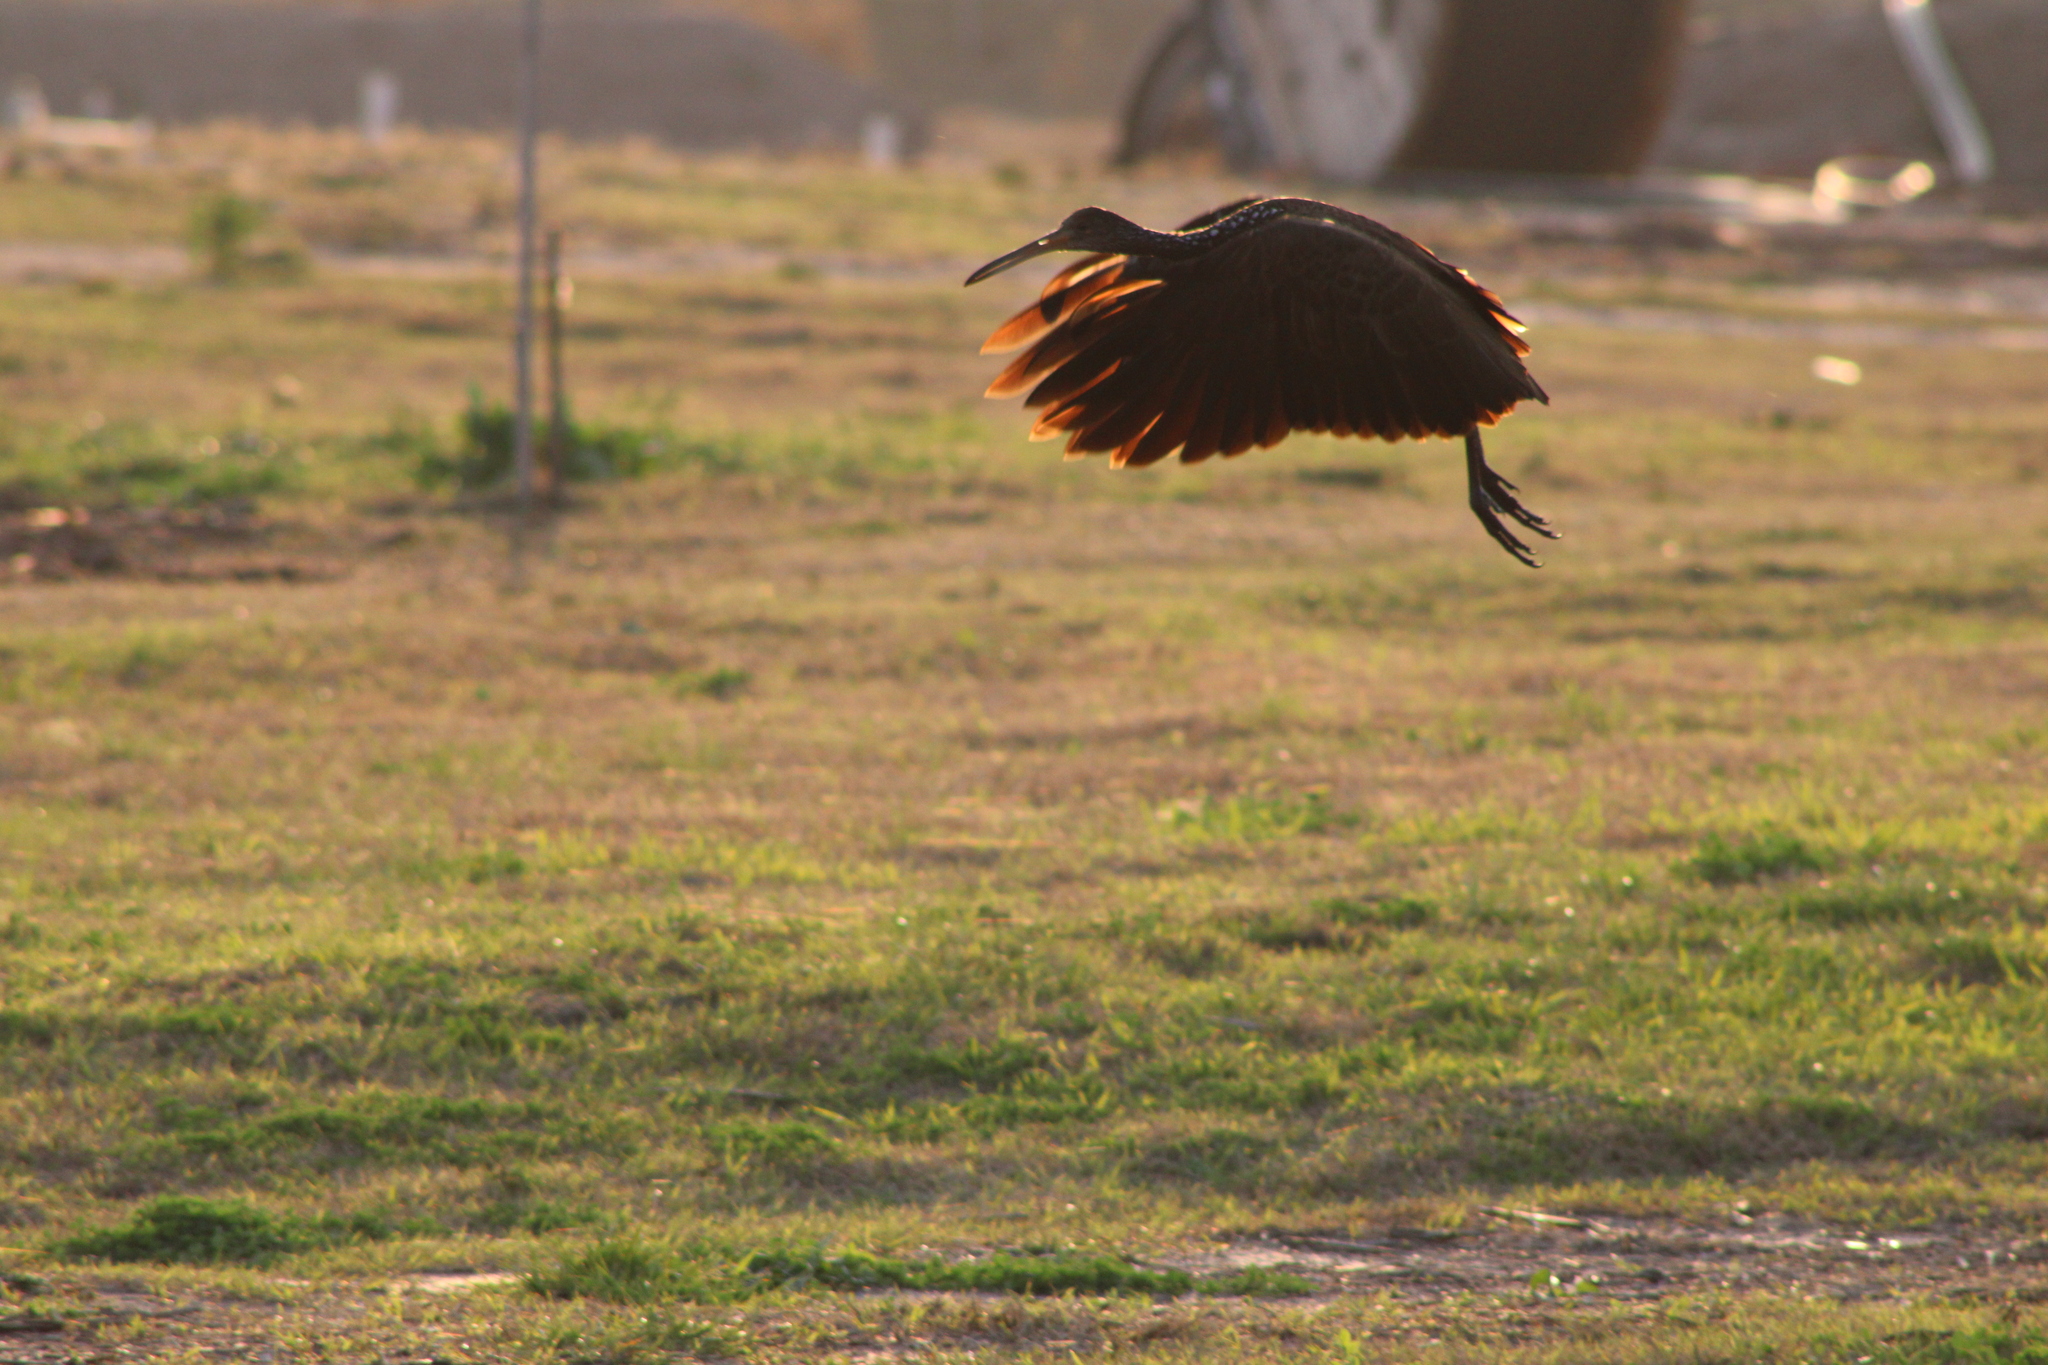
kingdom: Animalia
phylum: Chordata
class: Aves
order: Gruiformes
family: Aramidae
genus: Aramus
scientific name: Aramus guarauna
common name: Limpkin
